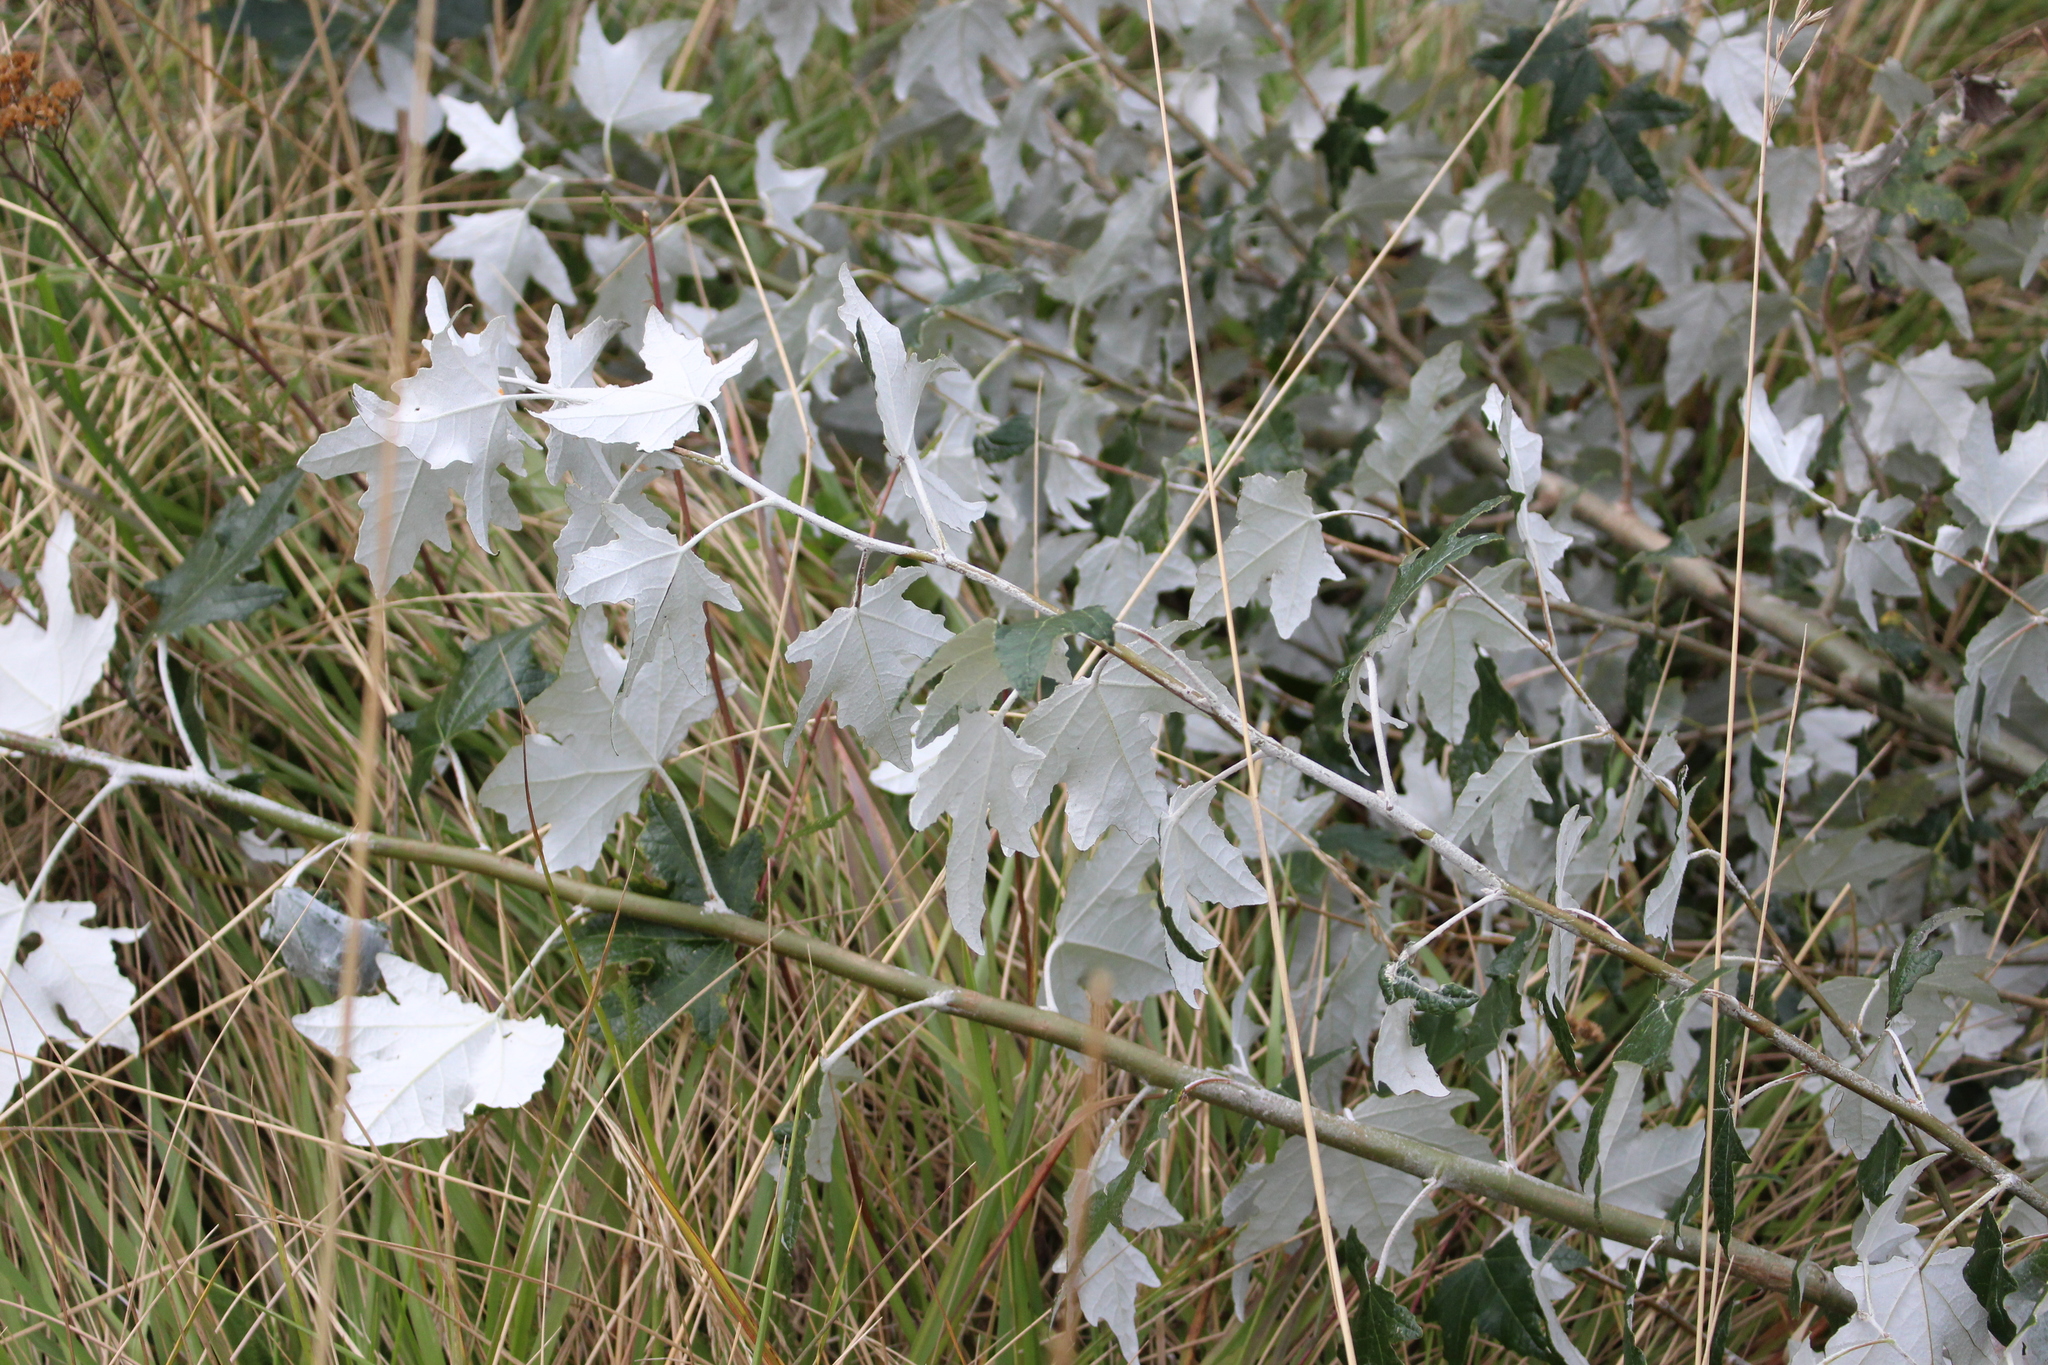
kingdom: Plantae
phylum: Tracheophyta
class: Magnoliopsida
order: Malpighiales
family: Salicaceae
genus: Populus
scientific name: Populus alba
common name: White poplar
